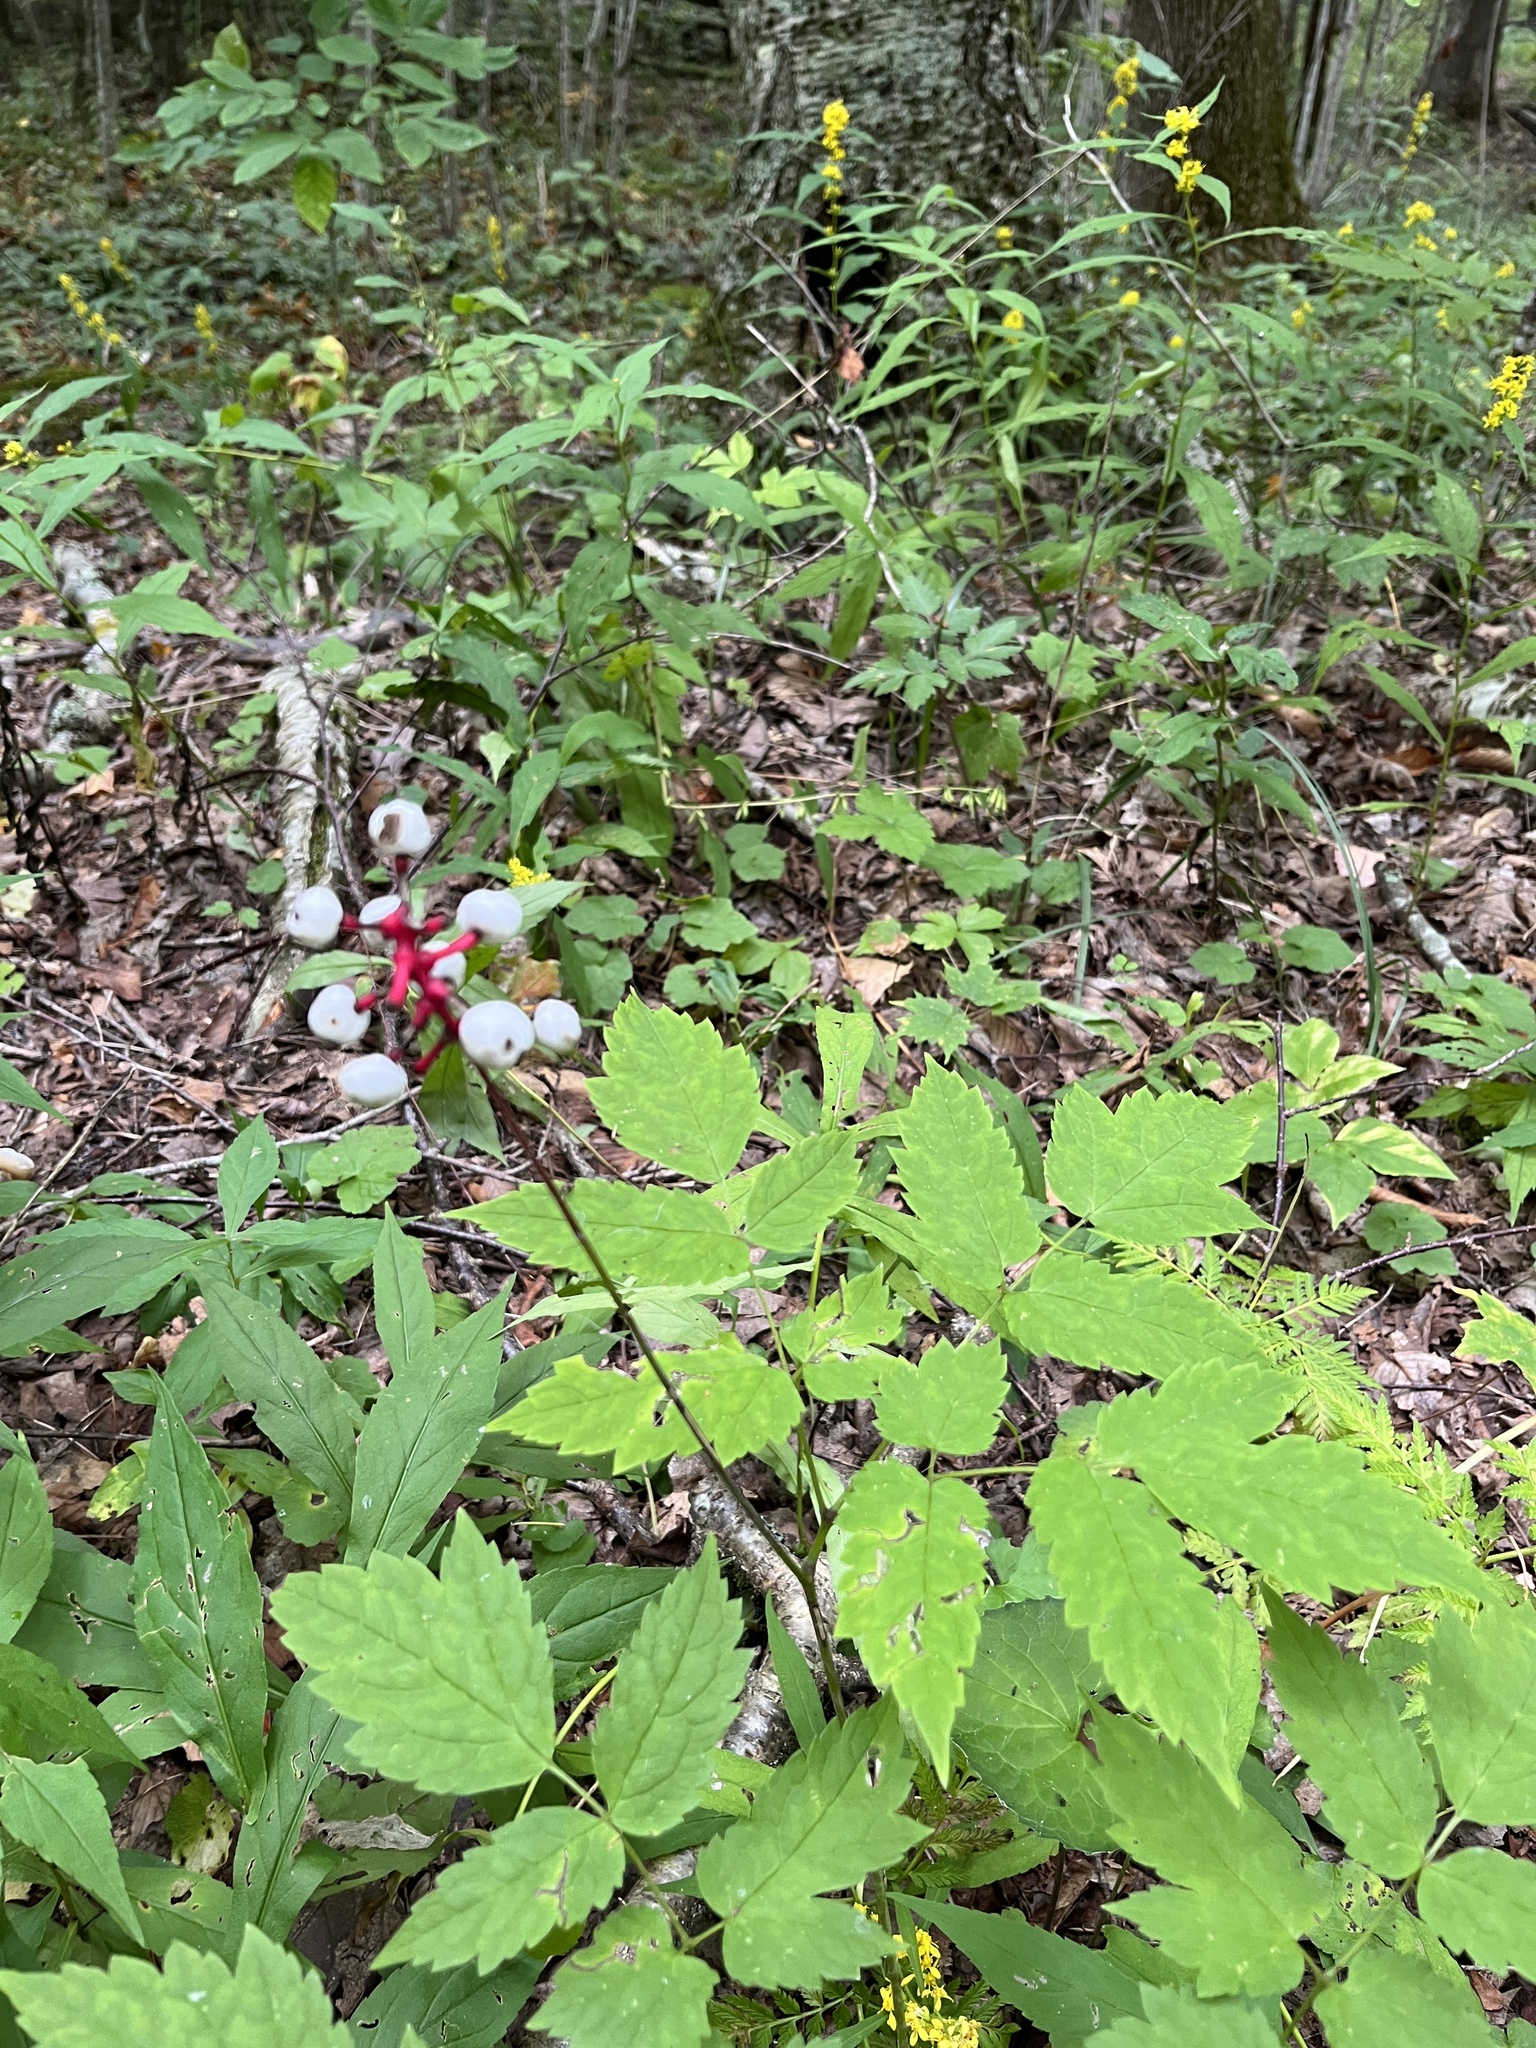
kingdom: Plantae
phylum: Tracheophyta
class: Magnoliopsida
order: Ranunculales
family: Ranunculaceae
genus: Actaea
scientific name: Actaea pachypoda
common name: Doll's-eyes
